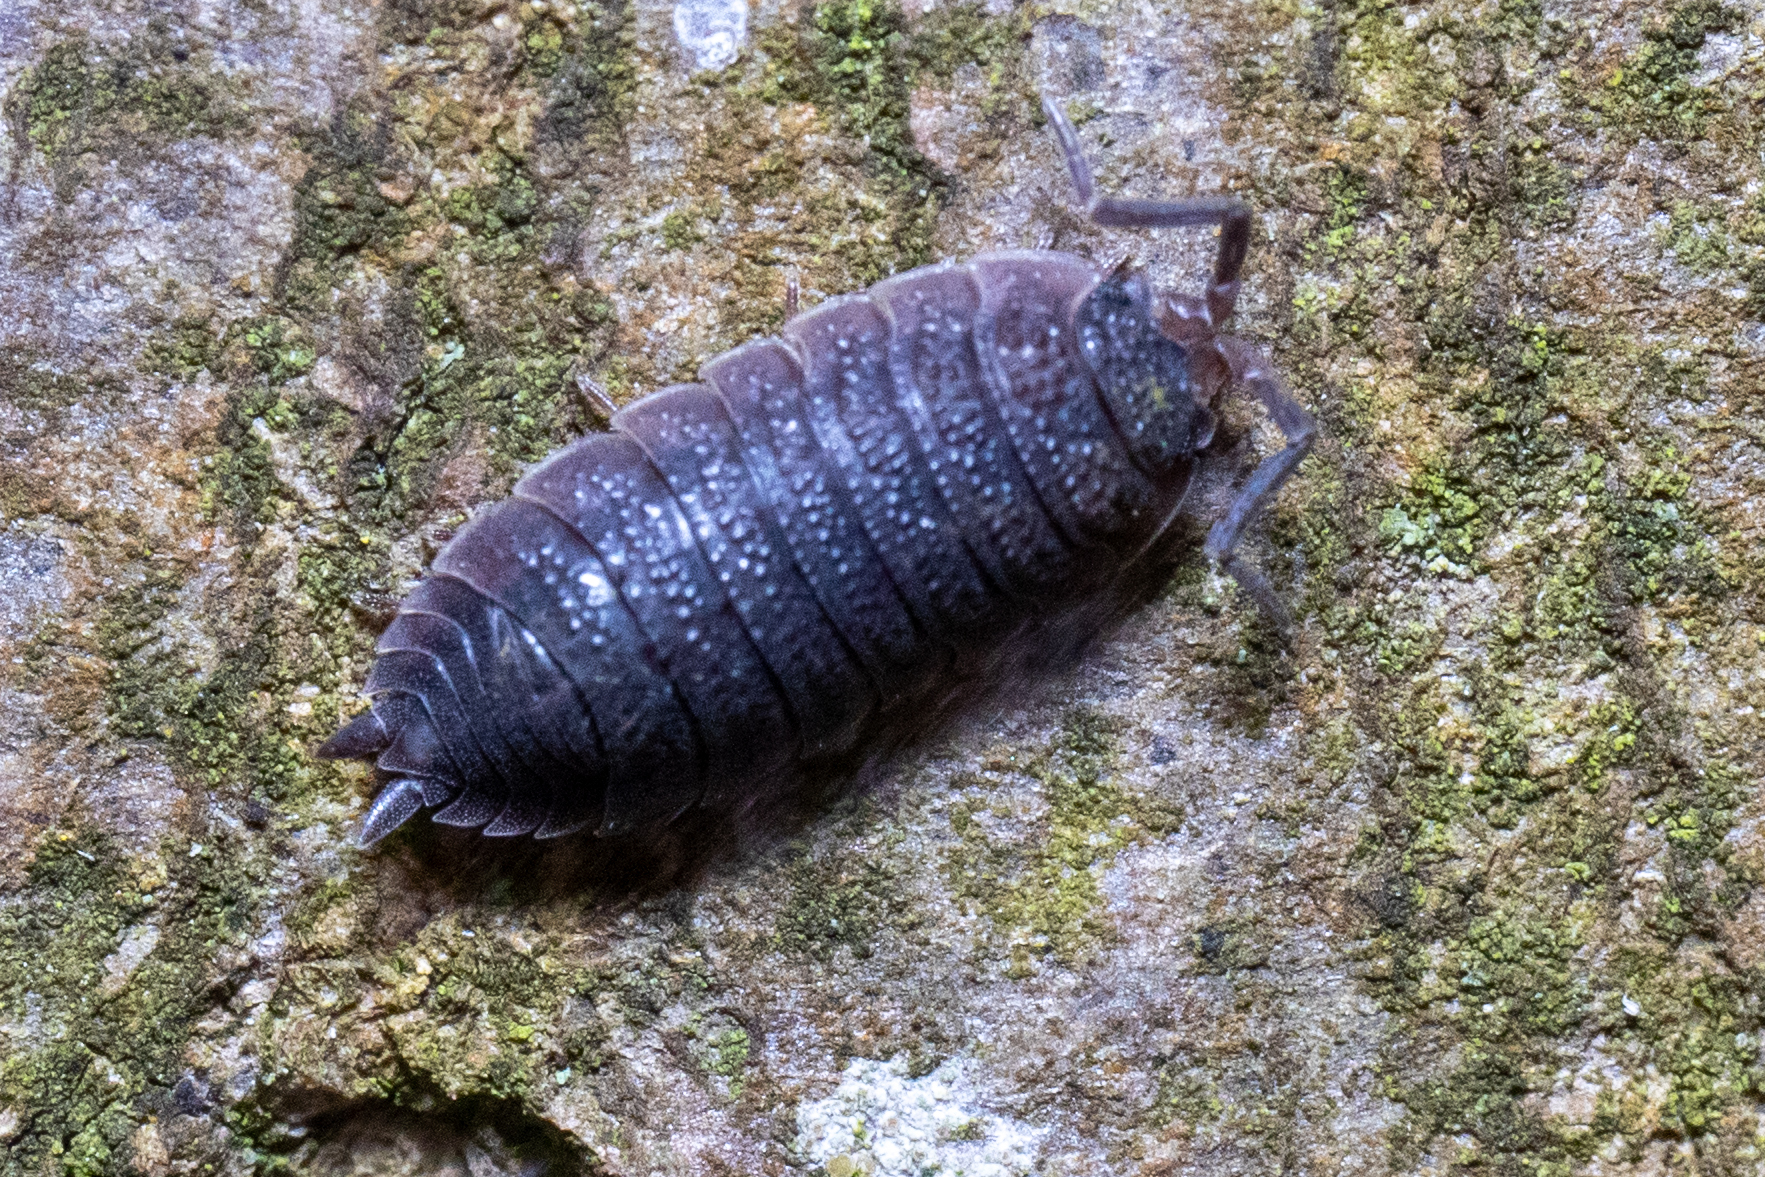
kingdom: Animalia
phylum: Arthropoda
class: Malacostraca
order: Isopoda
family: Porcellionidae
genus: Porcellio
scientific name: Porcellio scaber
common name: Common rough woodlouse
